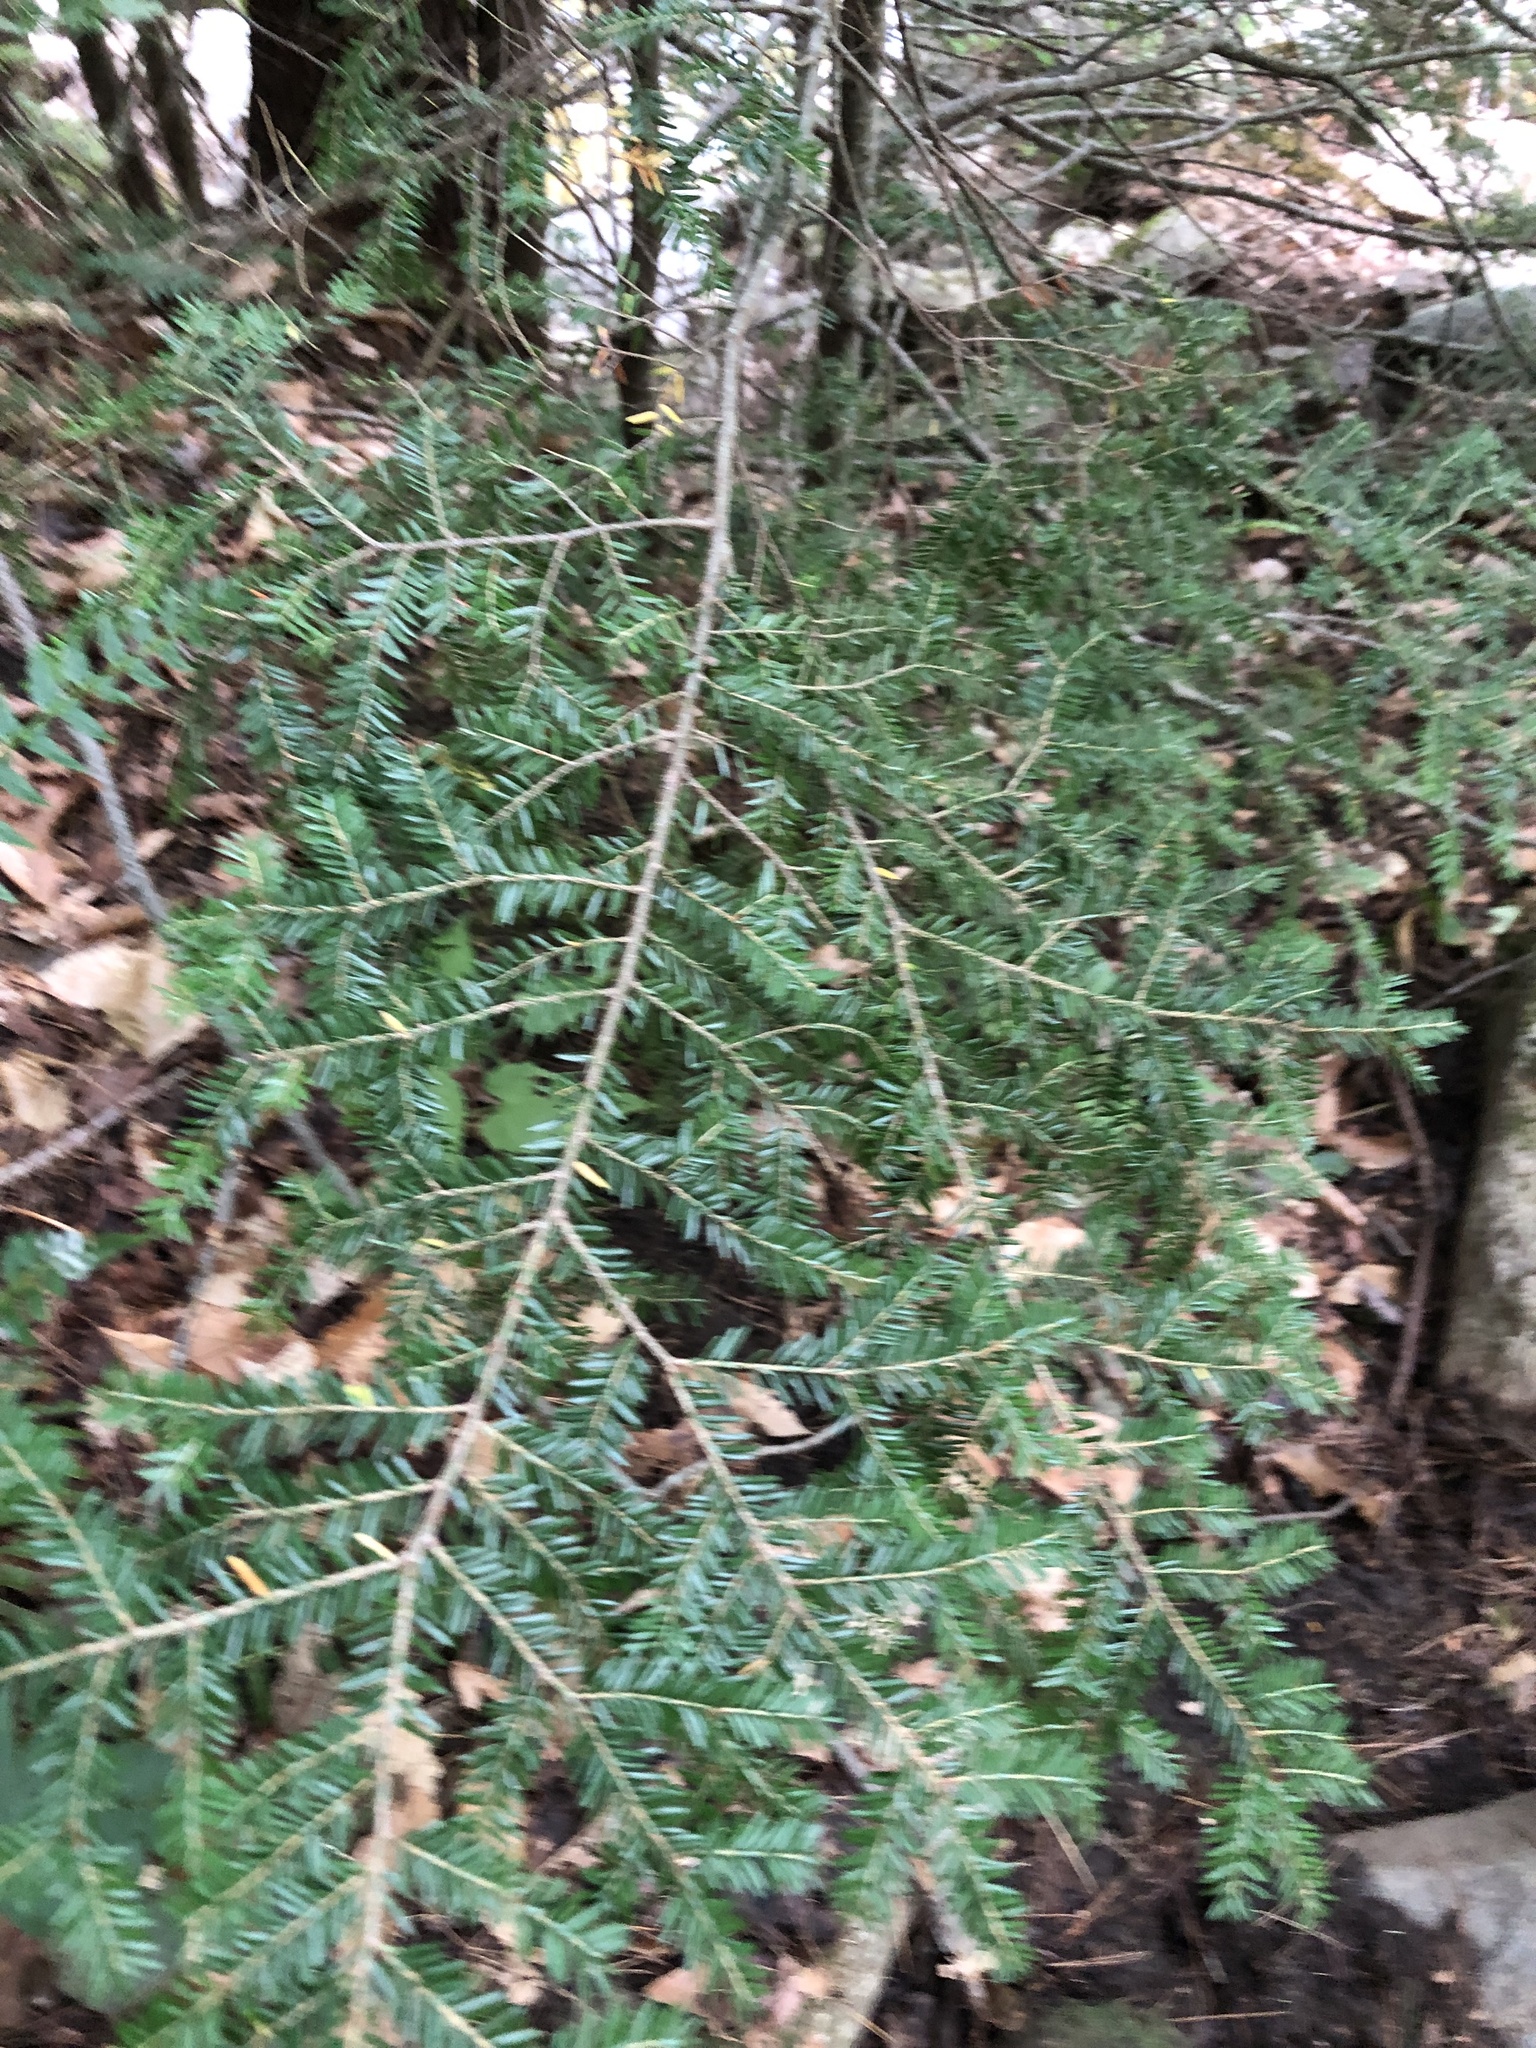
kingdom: Plantae
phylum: Tracheophyta
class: Pinopsida
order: Pinales
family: Pinaceae
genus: Tsuga
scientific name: Tsuga canadensis
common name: Eastern hemlock
